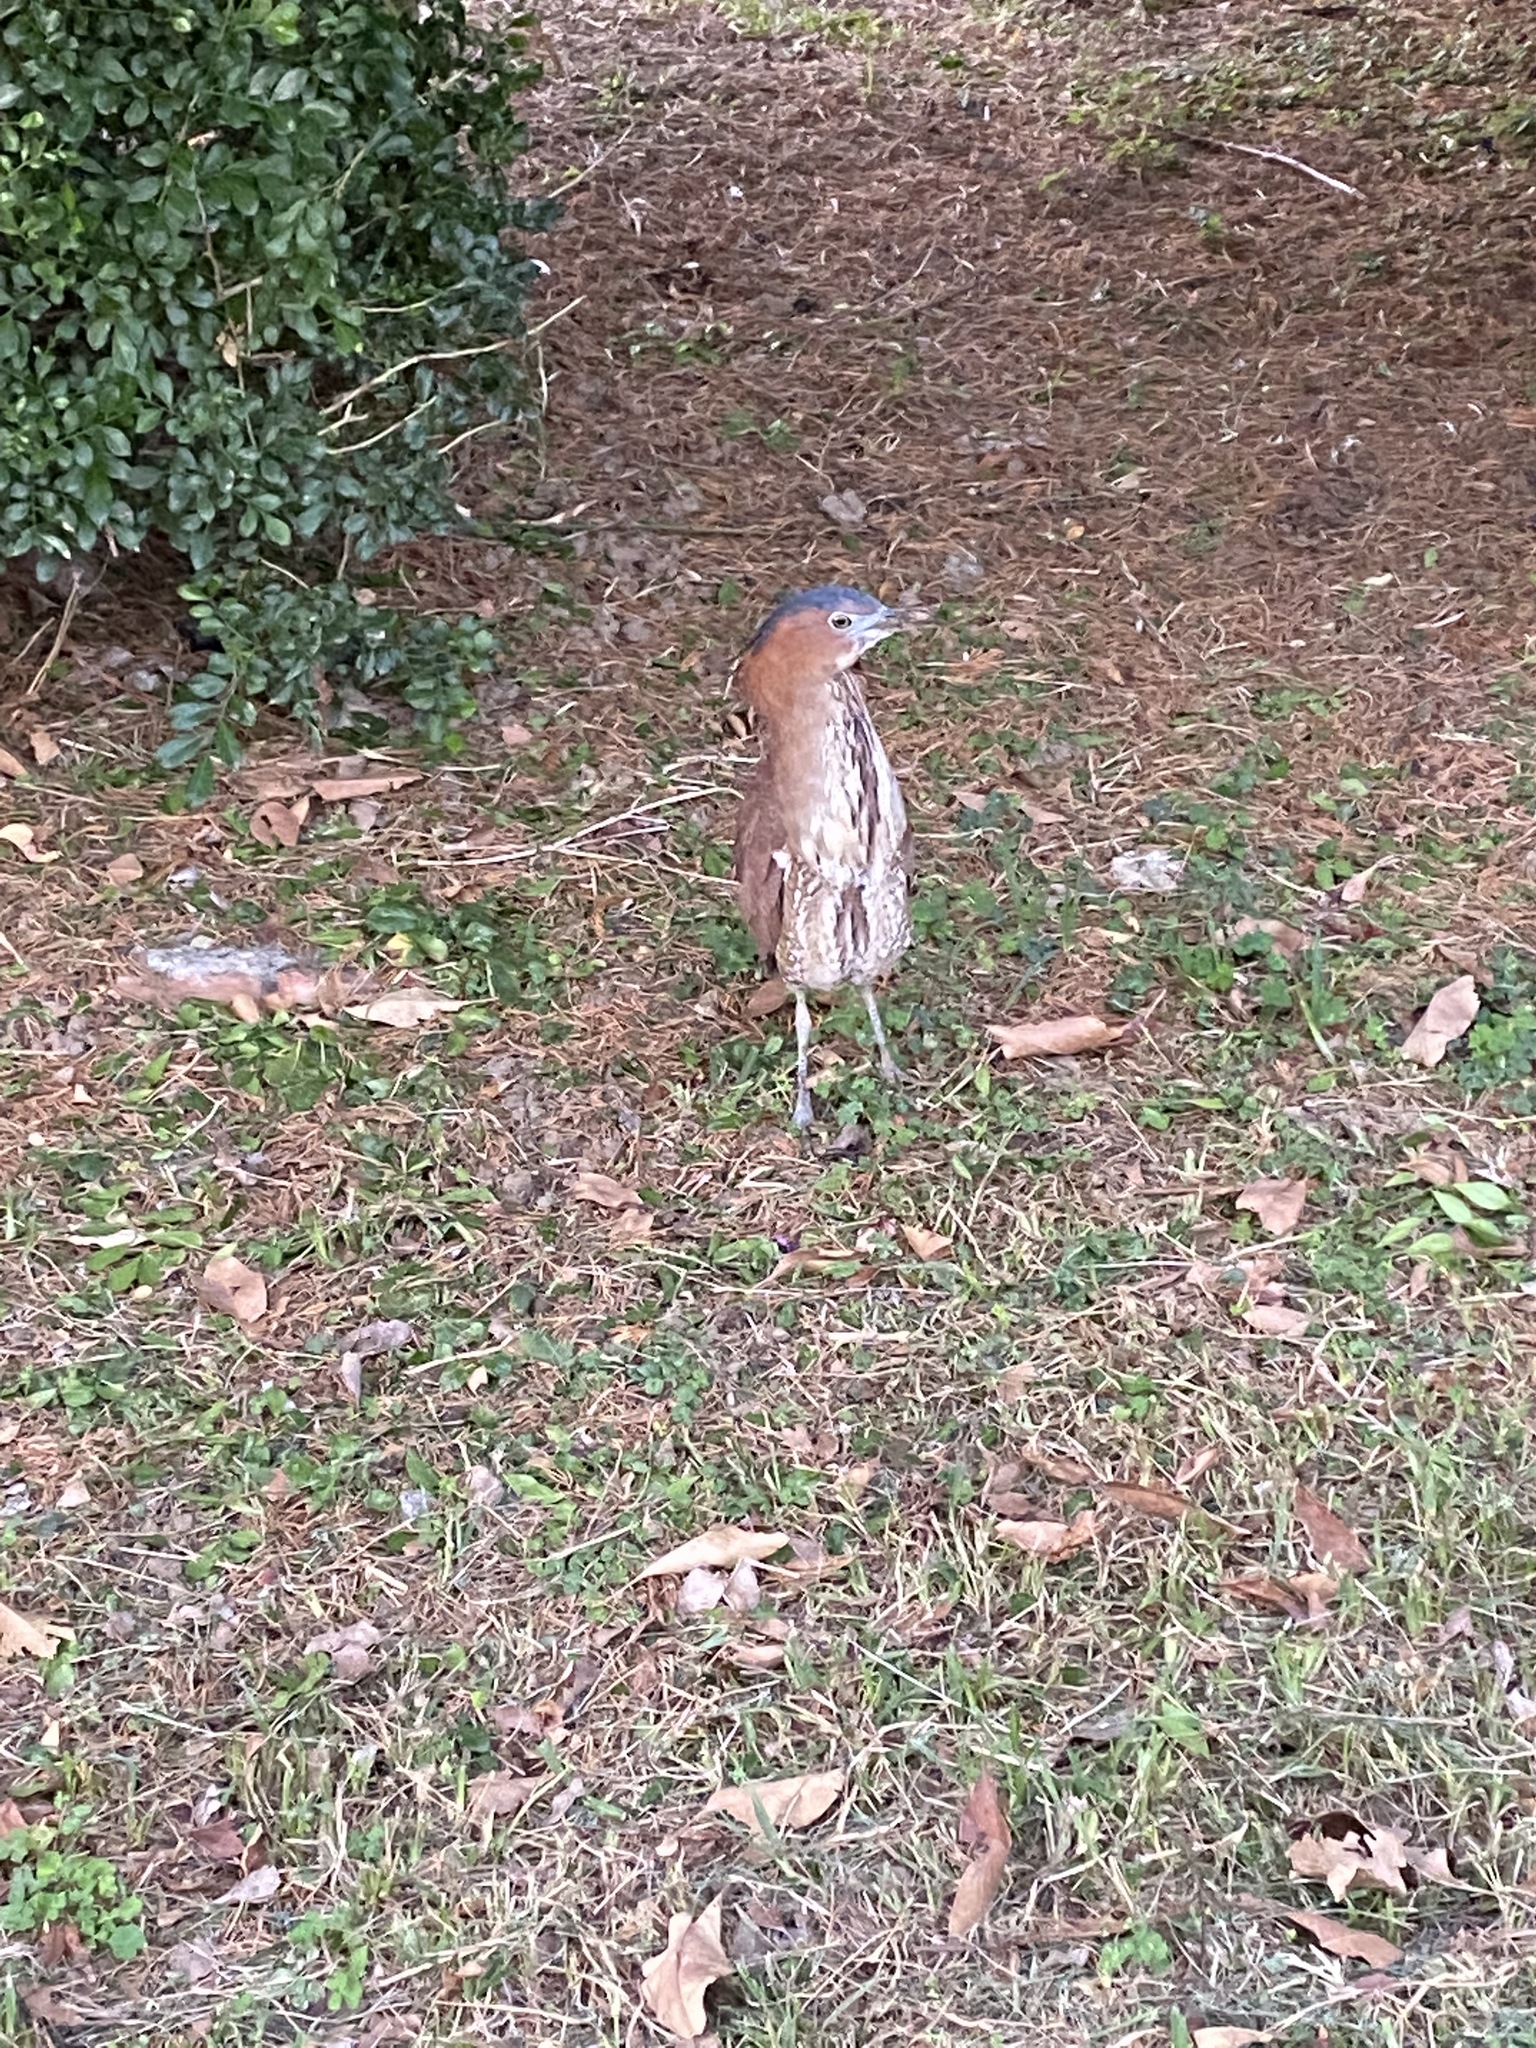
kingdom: Animalia
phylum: Chordata
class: Aves
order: Pelecaniformes
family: Ardeidae
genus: Gorsachius
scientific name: Gorsachius melanolophus
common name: Malayan night heron
